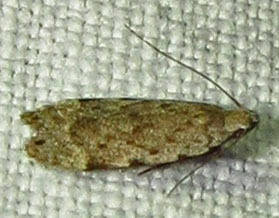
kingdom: Animalia
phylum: Arthropoda
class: Insecta
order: Lepidoptera
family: Gelechiidae
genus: Anacampsis
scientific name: Anacampsis conclusella
